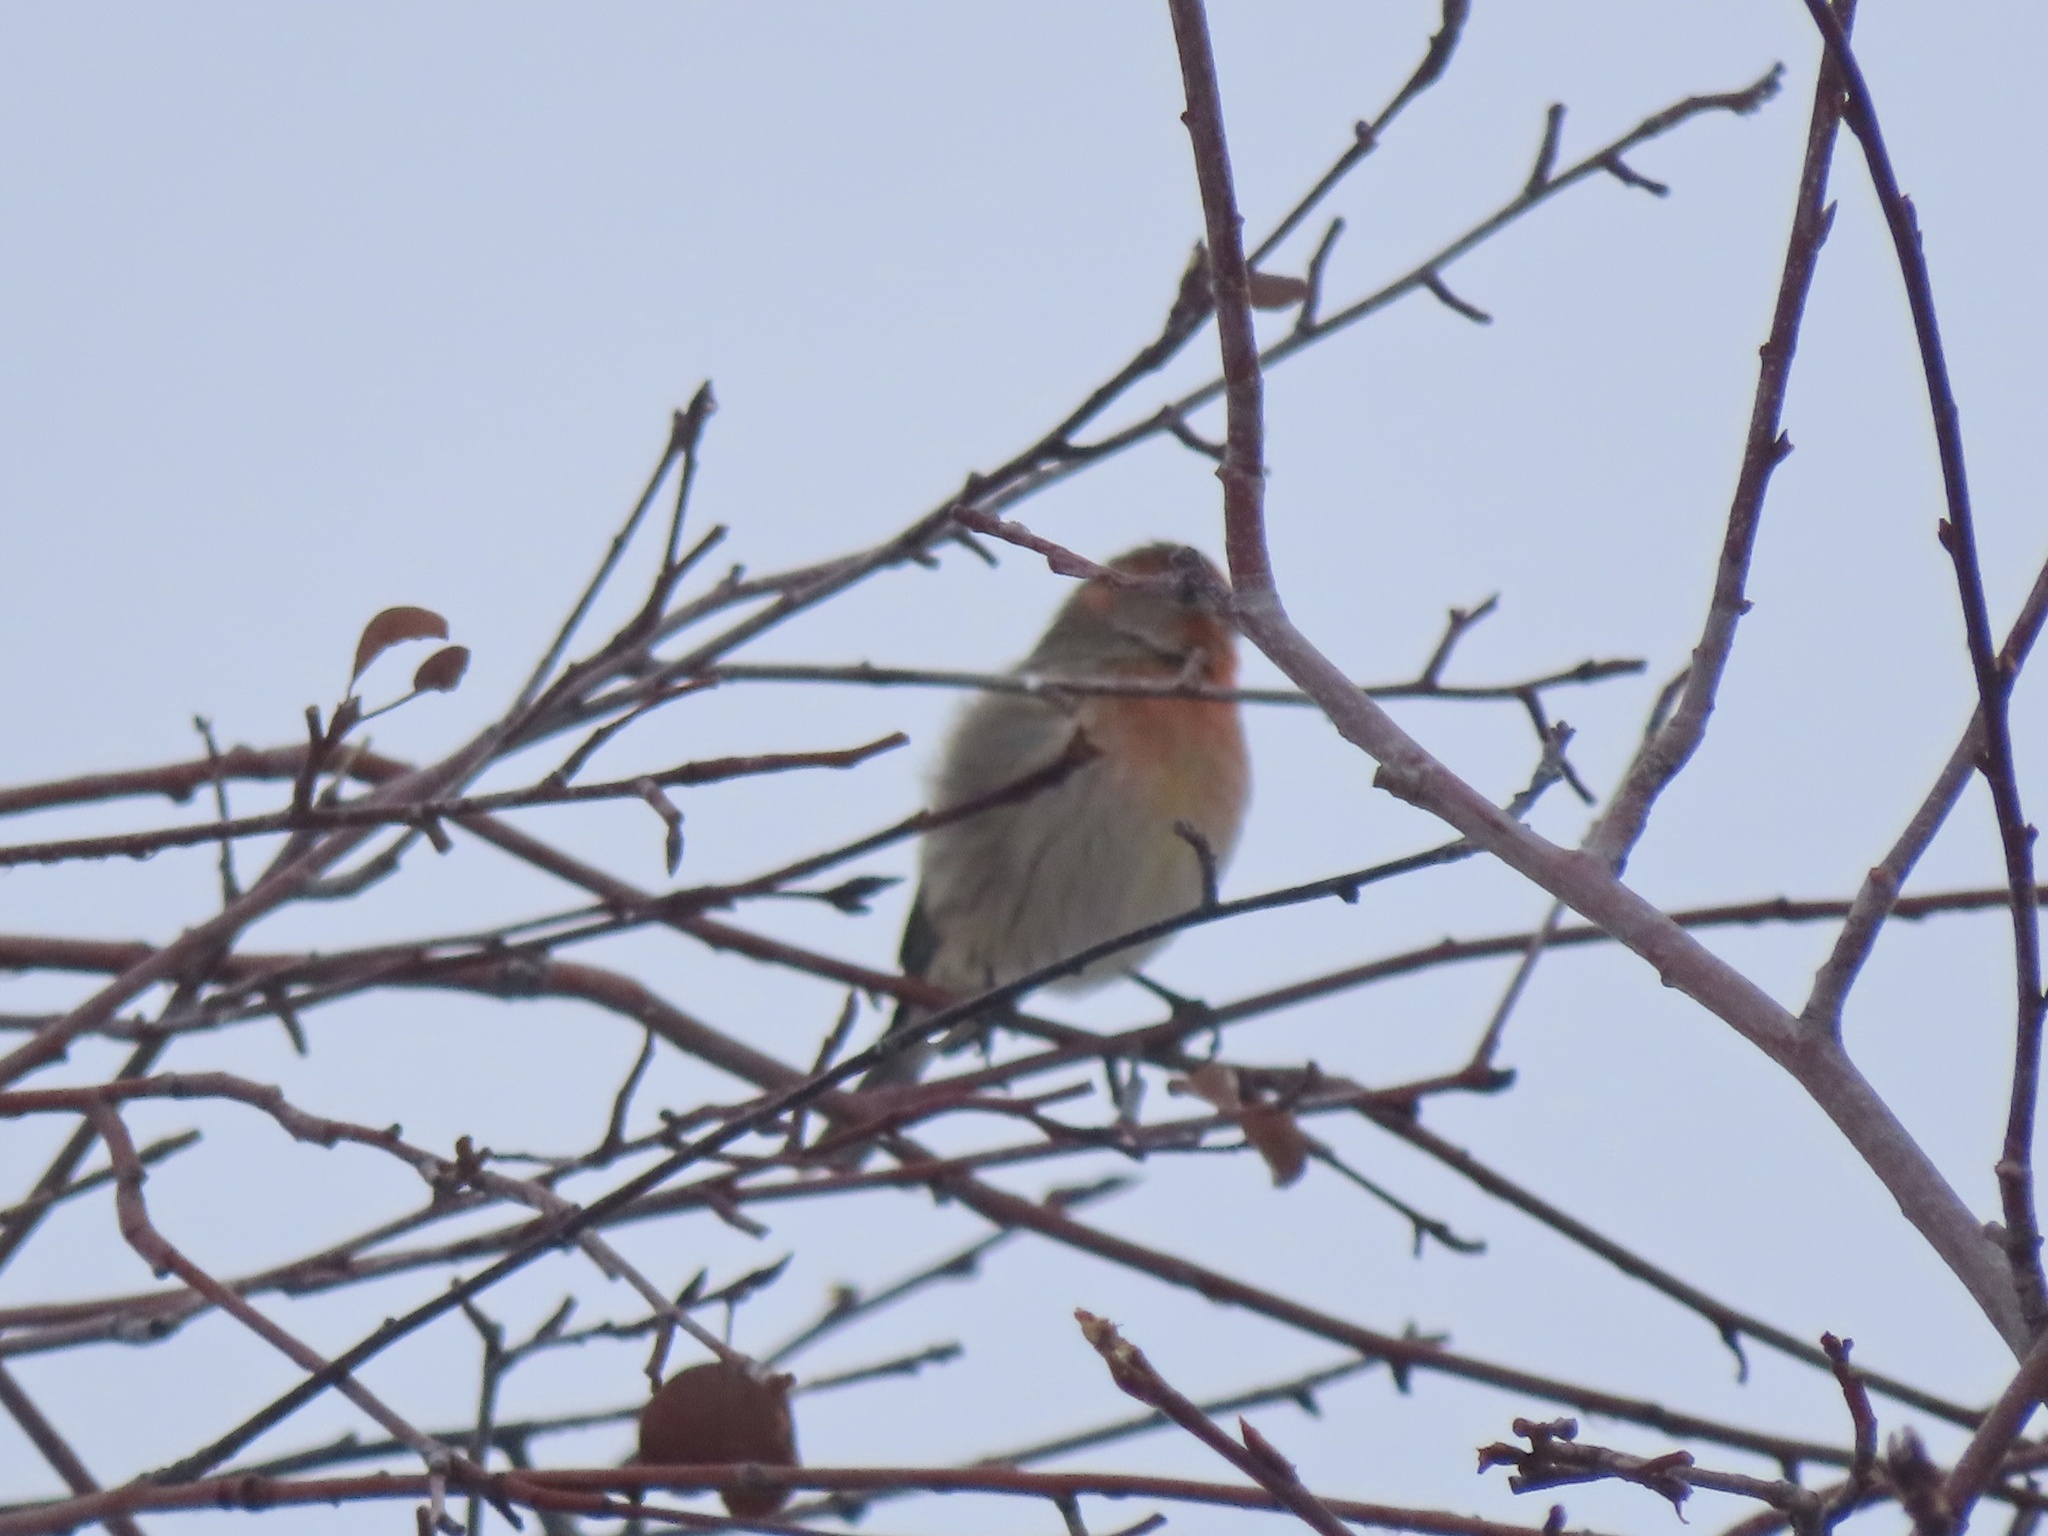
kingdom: Animalia
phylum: Chordata
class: Aves
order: Passeriformes
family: Fringillidae
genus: Haemorhous
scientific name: Haemorhous mexicanus
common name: House finch
